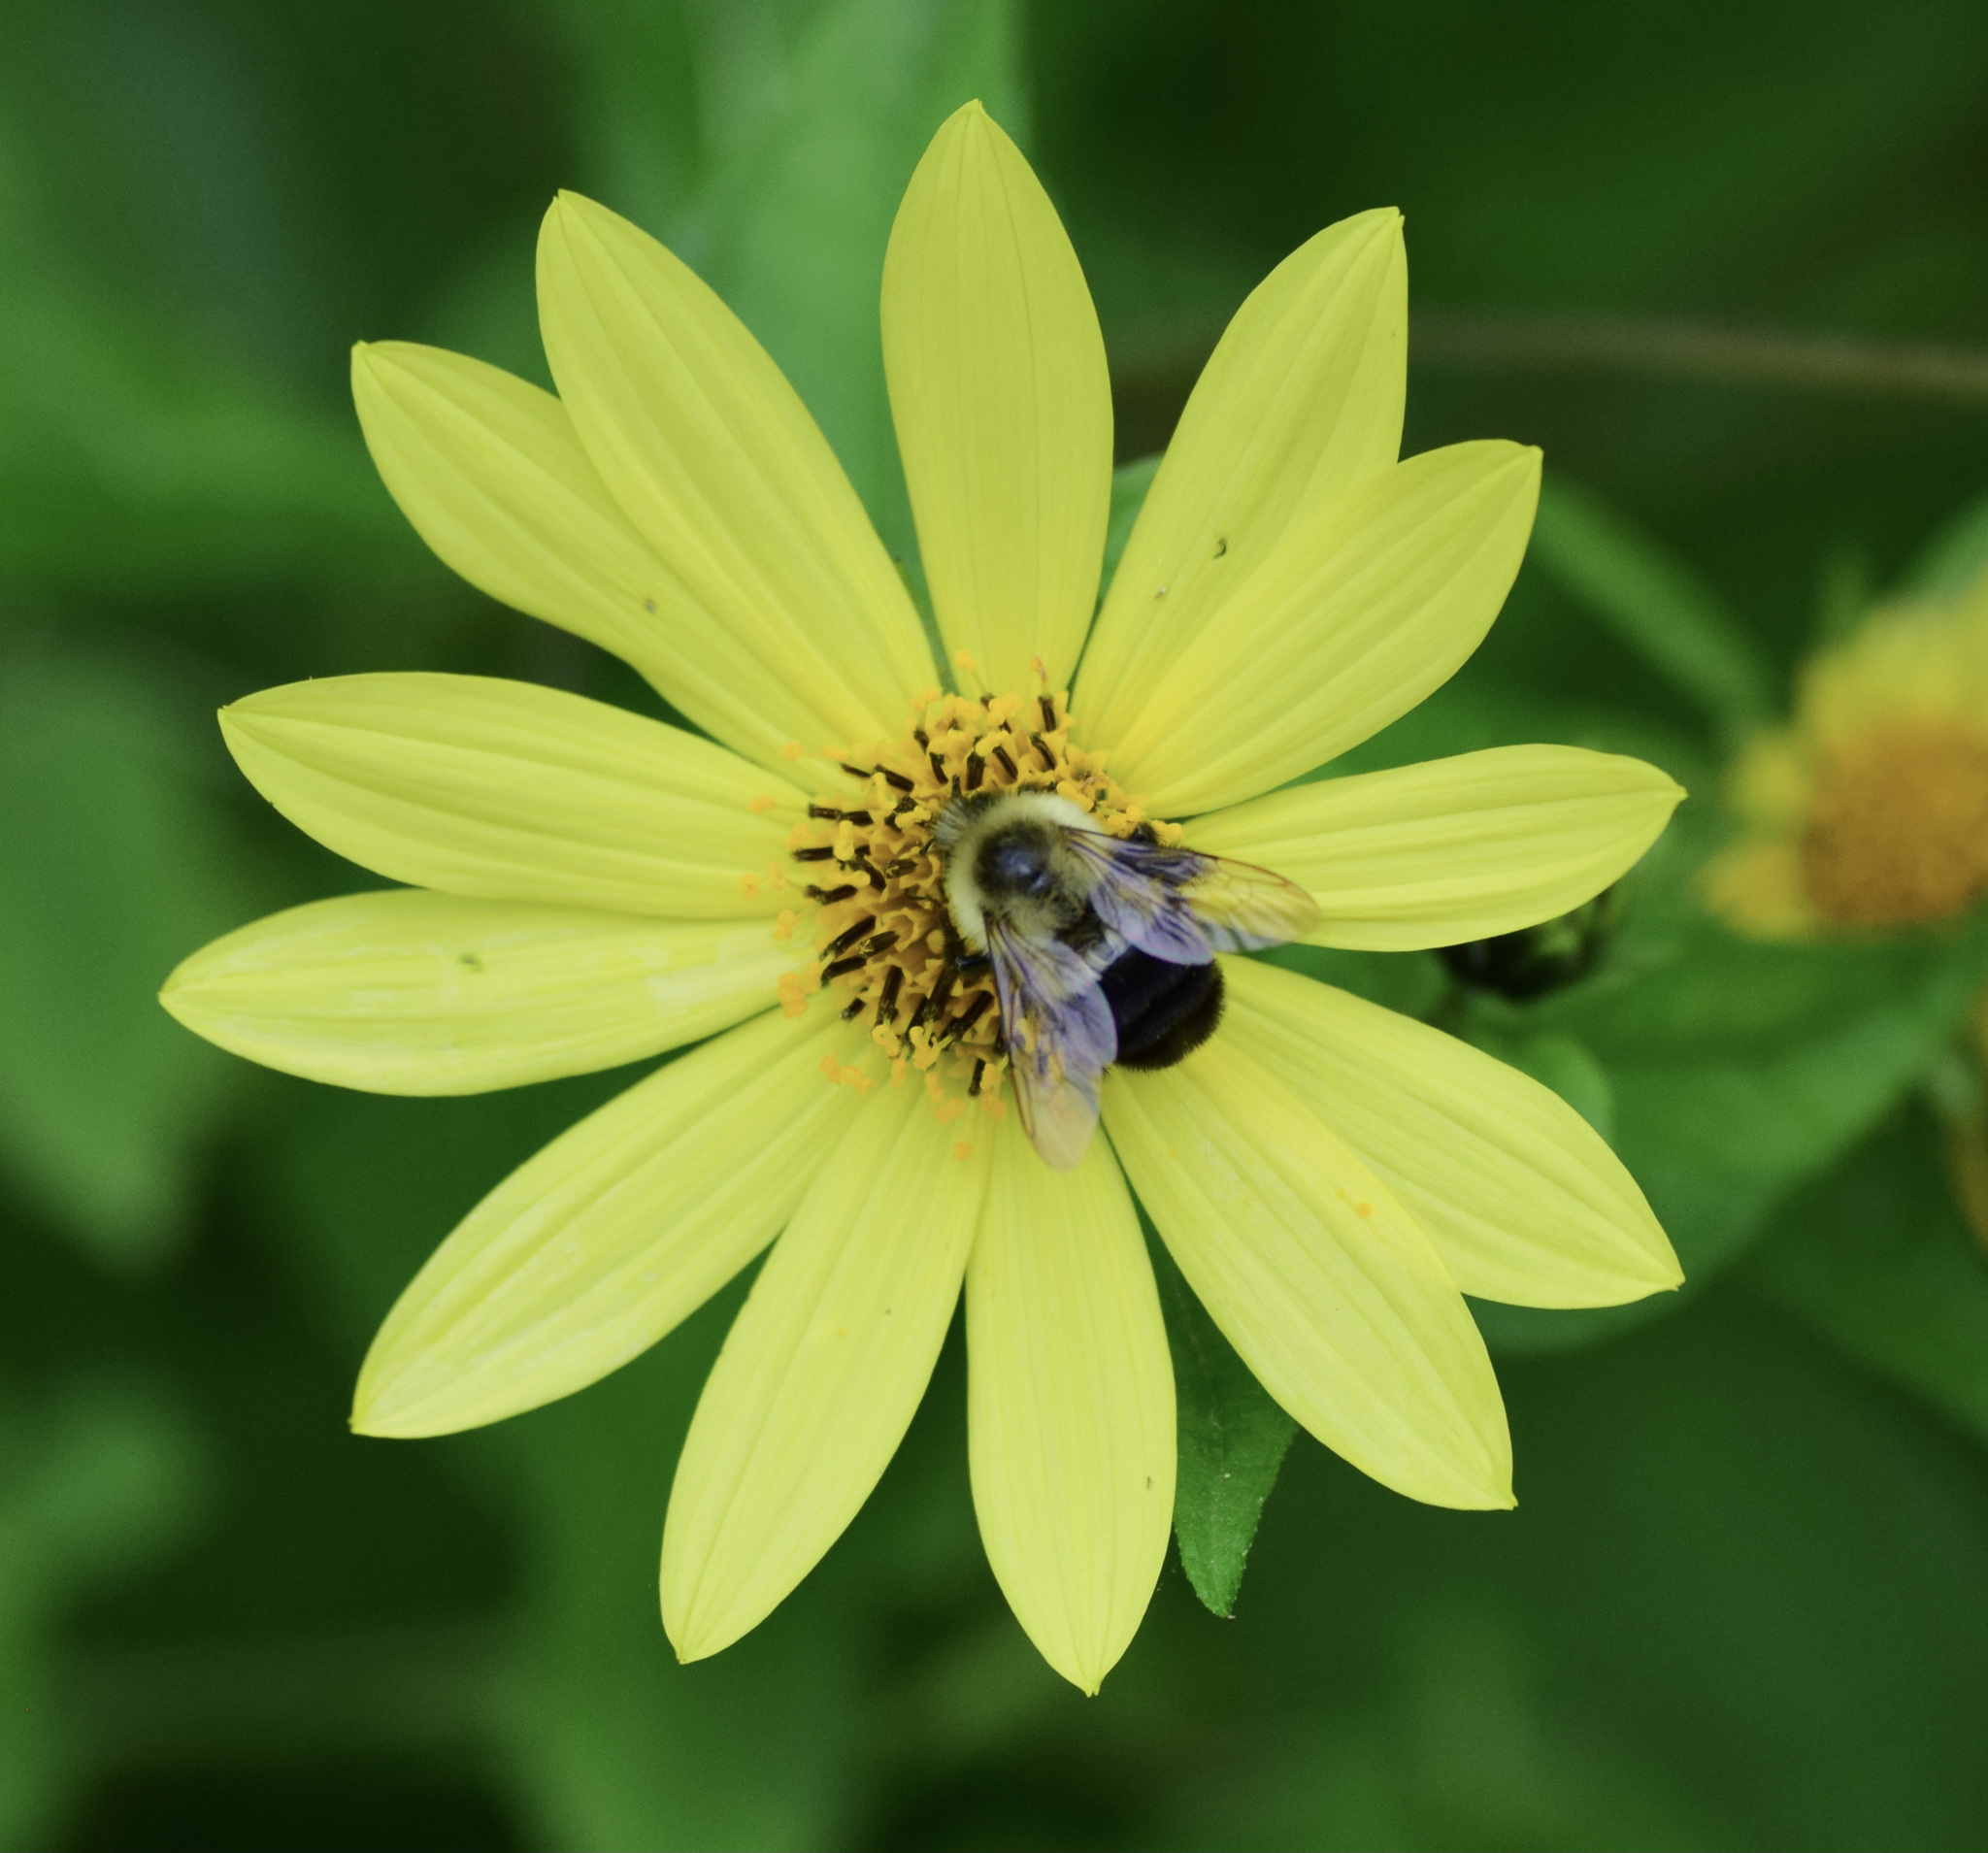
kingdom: Animalia
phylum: Arthropoda
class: Insecta
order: Hymenoptera
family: Apidae
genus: Bombus
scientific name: Bombus impatiens
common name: Common eastern bumble bee
